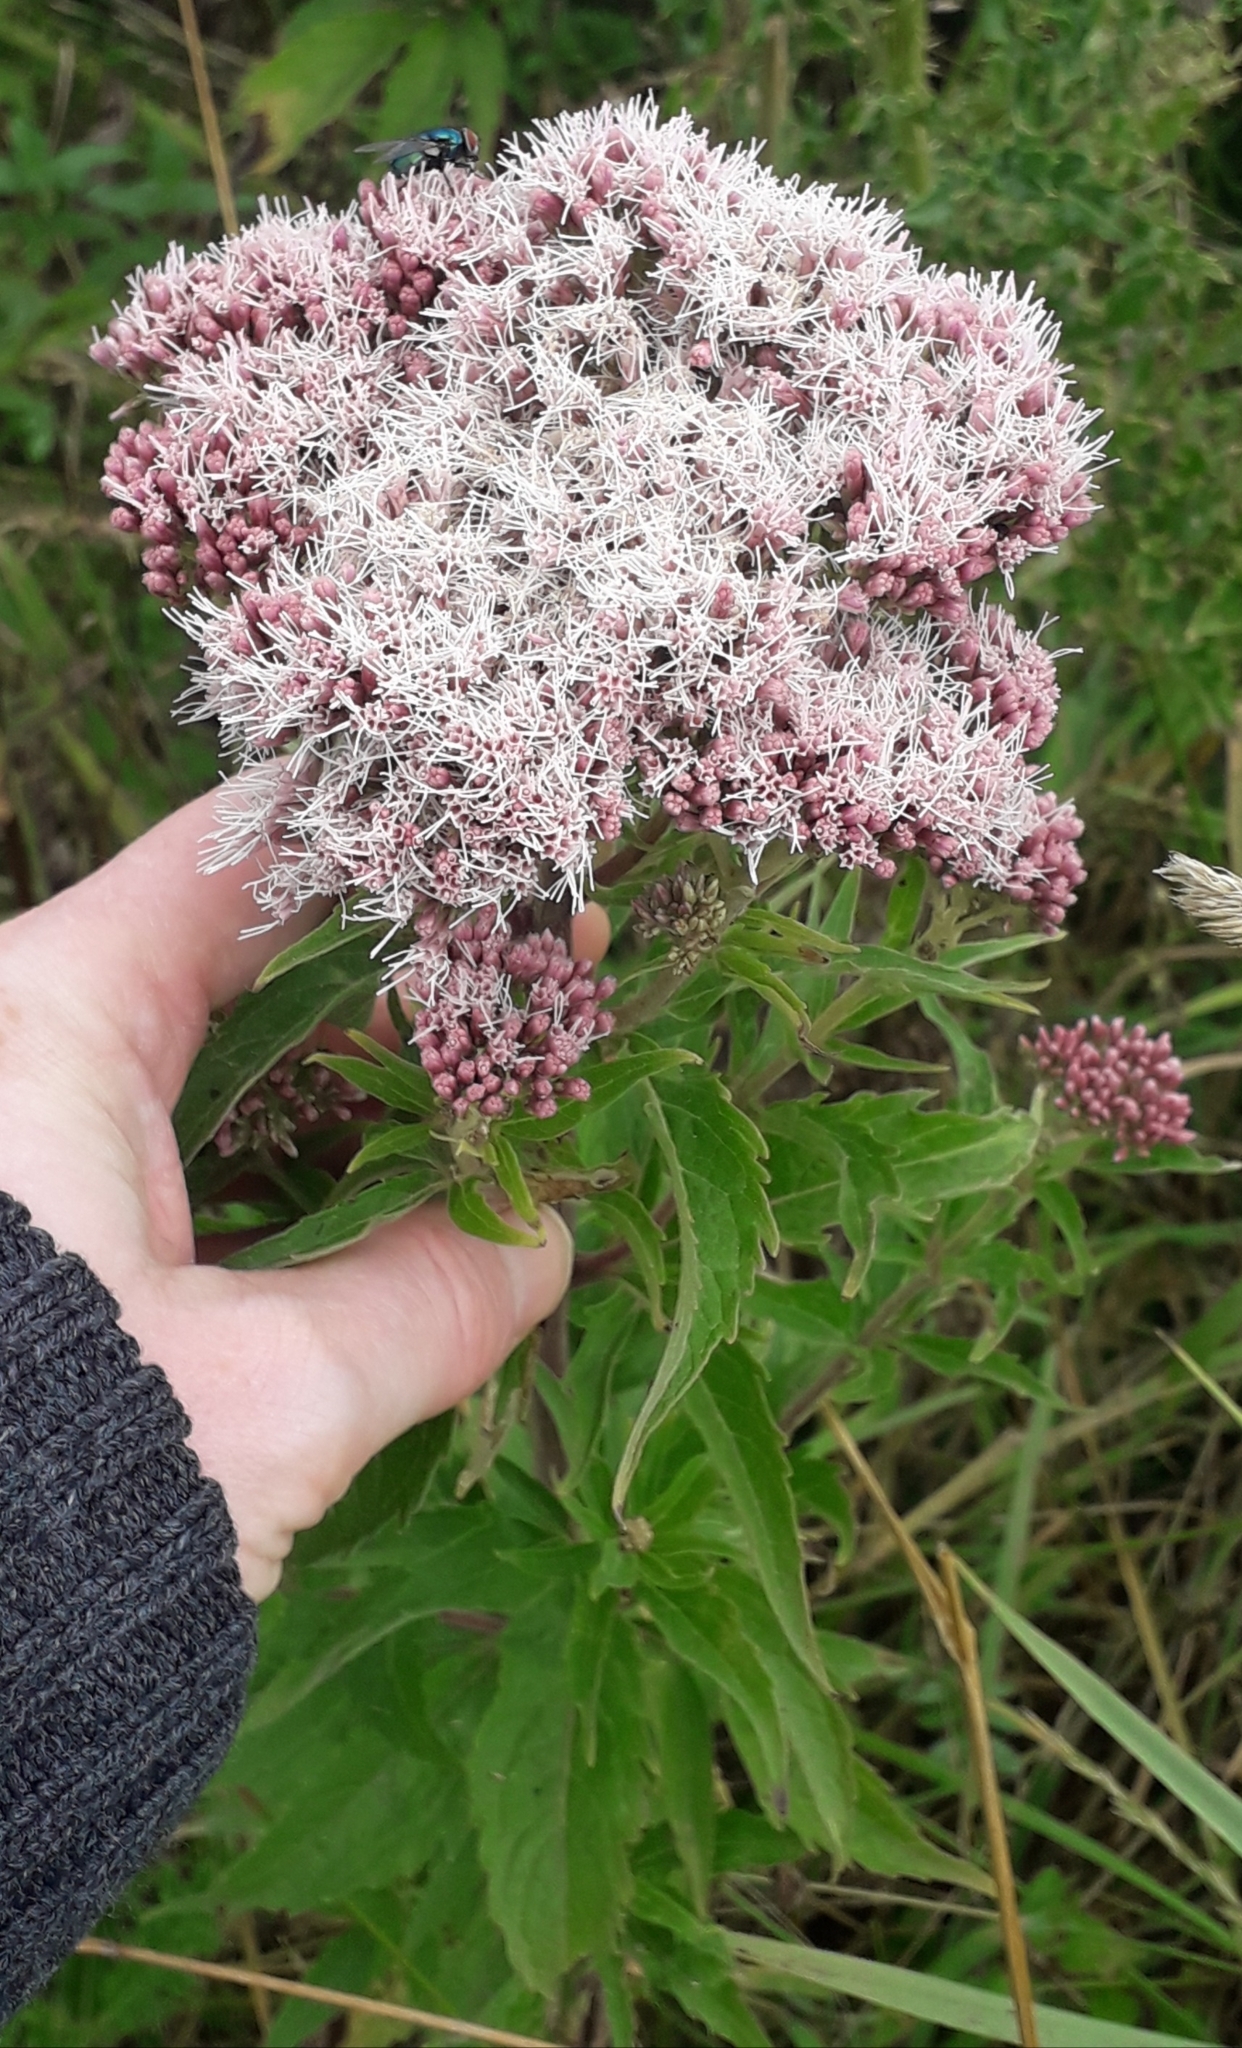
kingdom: Plantae
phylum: Tracheophyta
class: Magnoliopsida
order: Asterales
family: Asteraceae
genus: Eupatorium
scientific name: Eupatorium cannabinum
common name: Hemp-agrimony
